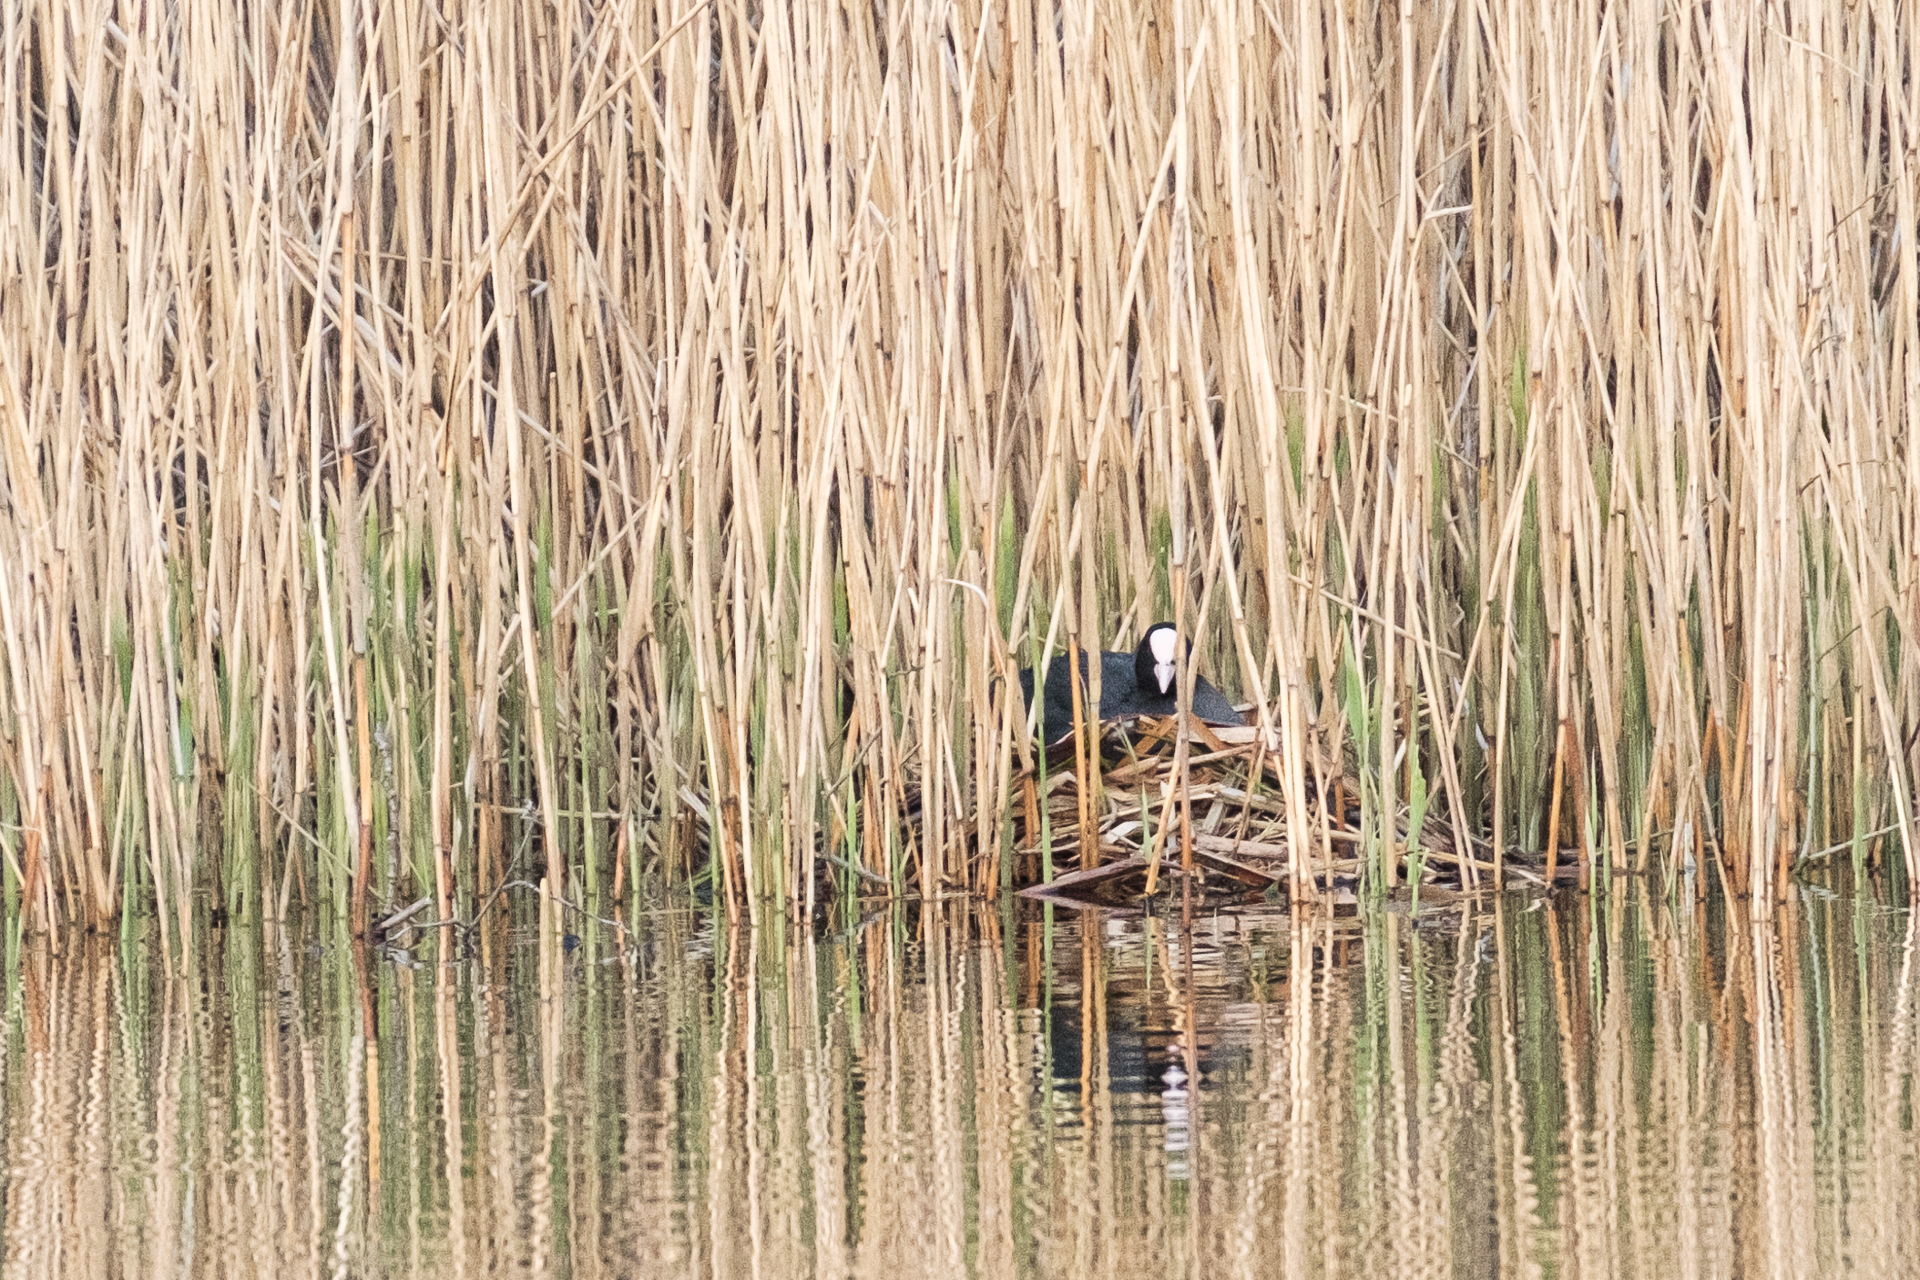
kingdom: Animalia
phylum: Chordata
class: Aves
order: Gruiformes
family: Rallidae
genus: Fulica
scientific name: Fulica atra
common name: Eurasian coot
